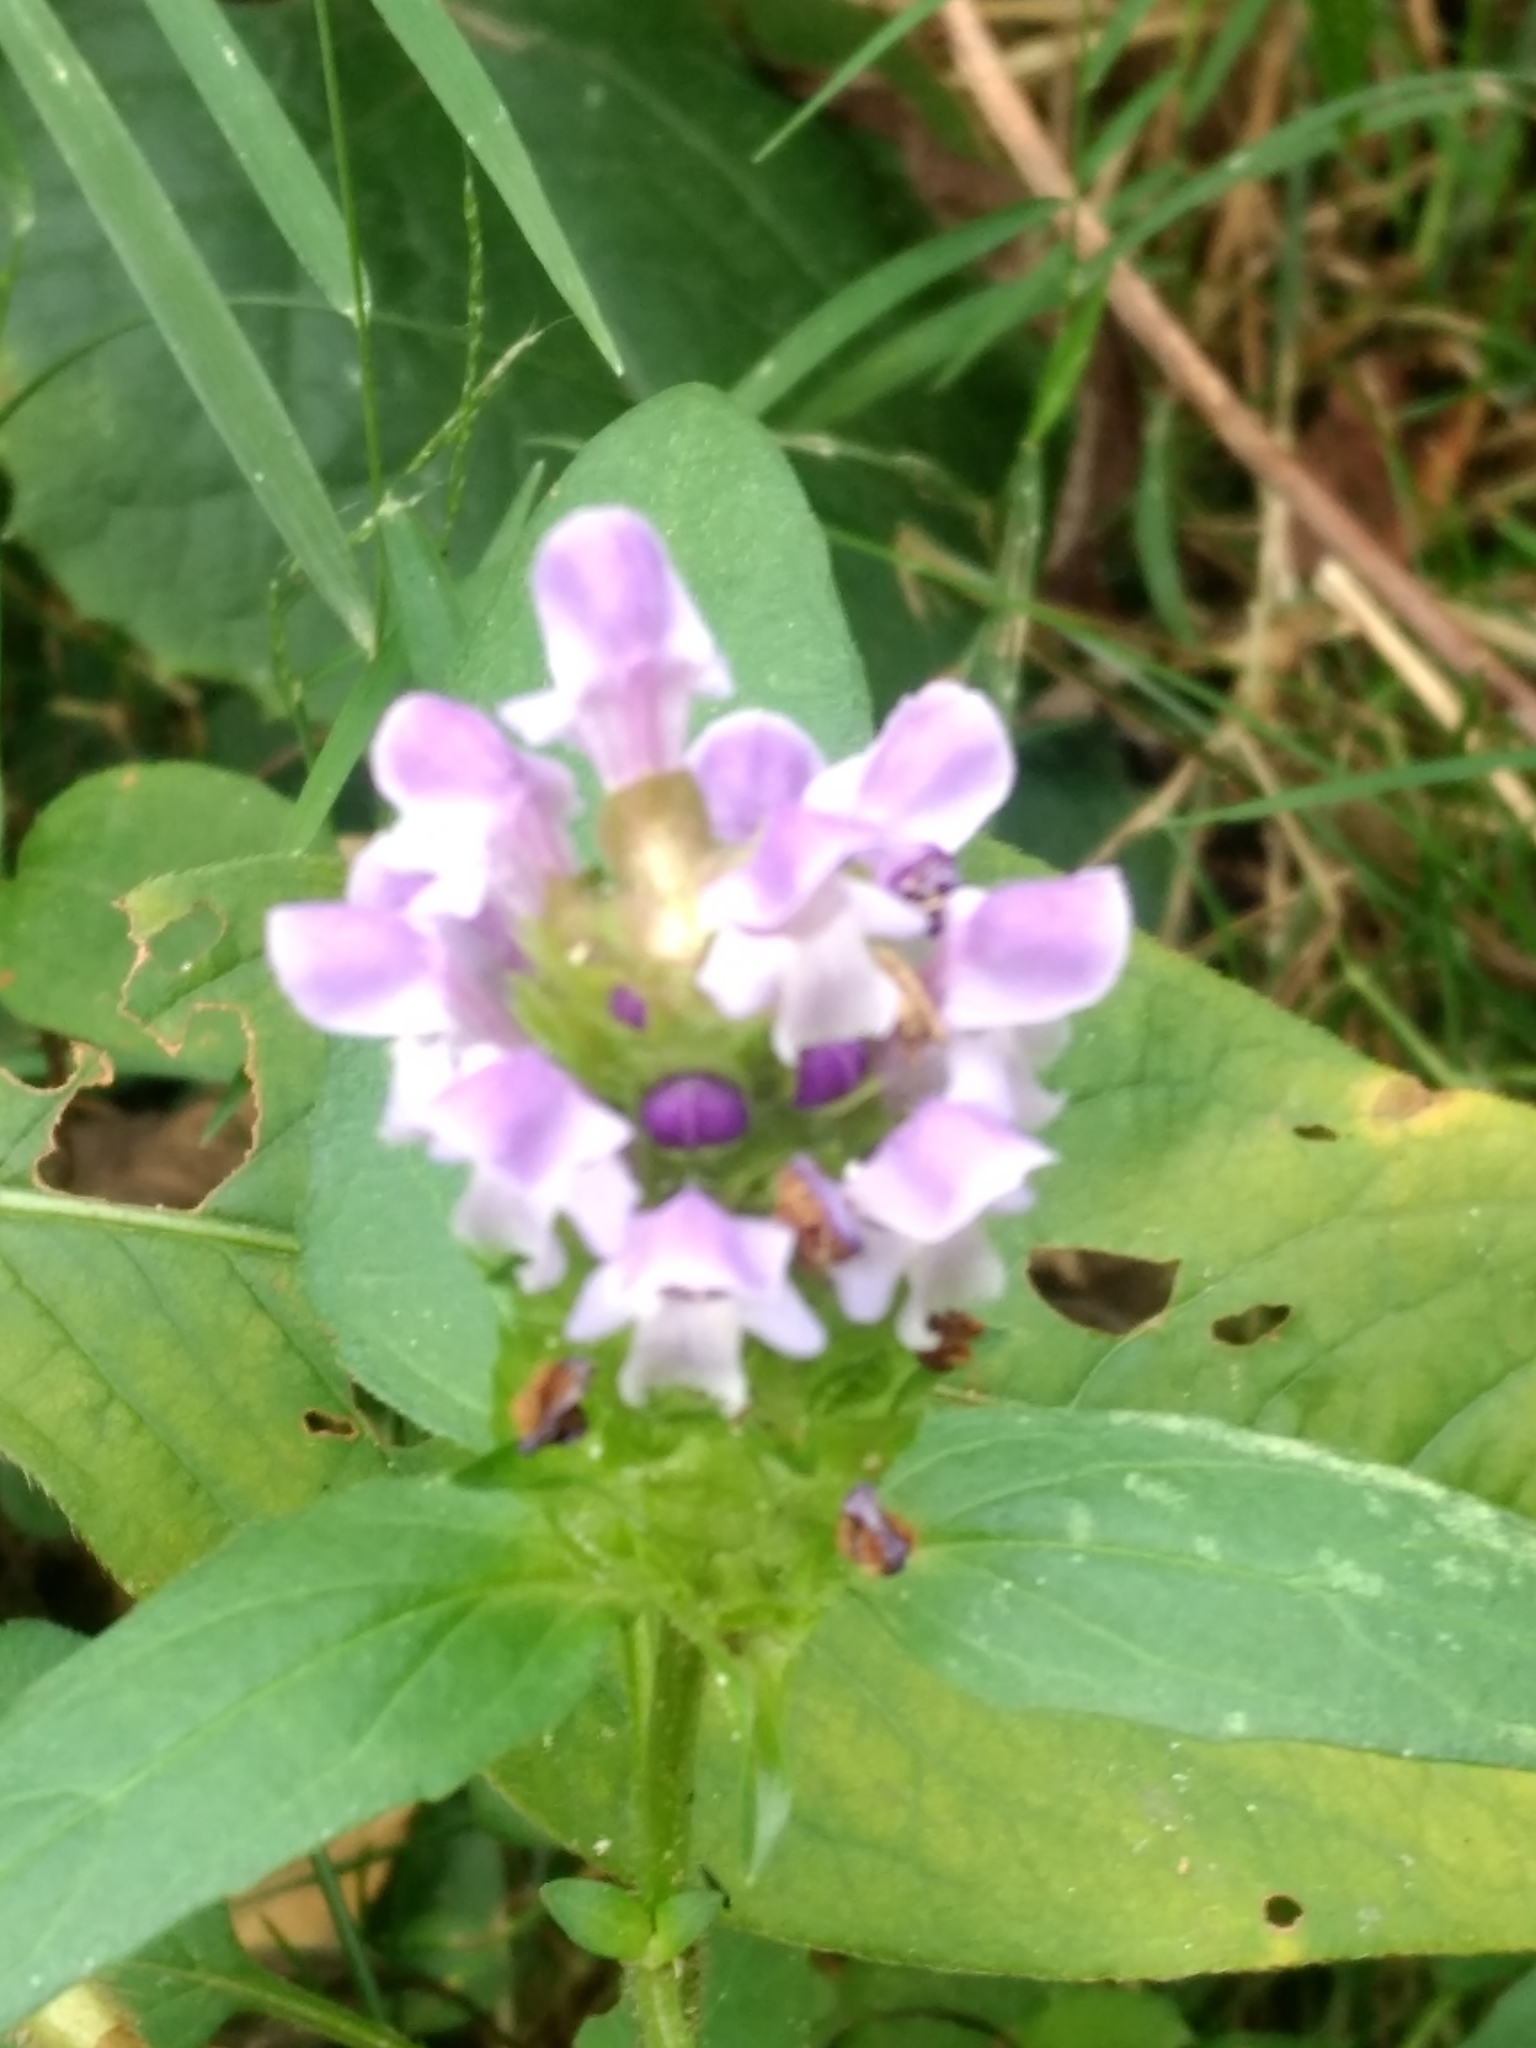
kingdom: Plantae
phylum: Tracheophyta
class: Magnoliopsida
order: Lamiales
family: Lamiaceae
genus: Prunella
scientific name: Prunella vulgaris
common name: Heal-all
